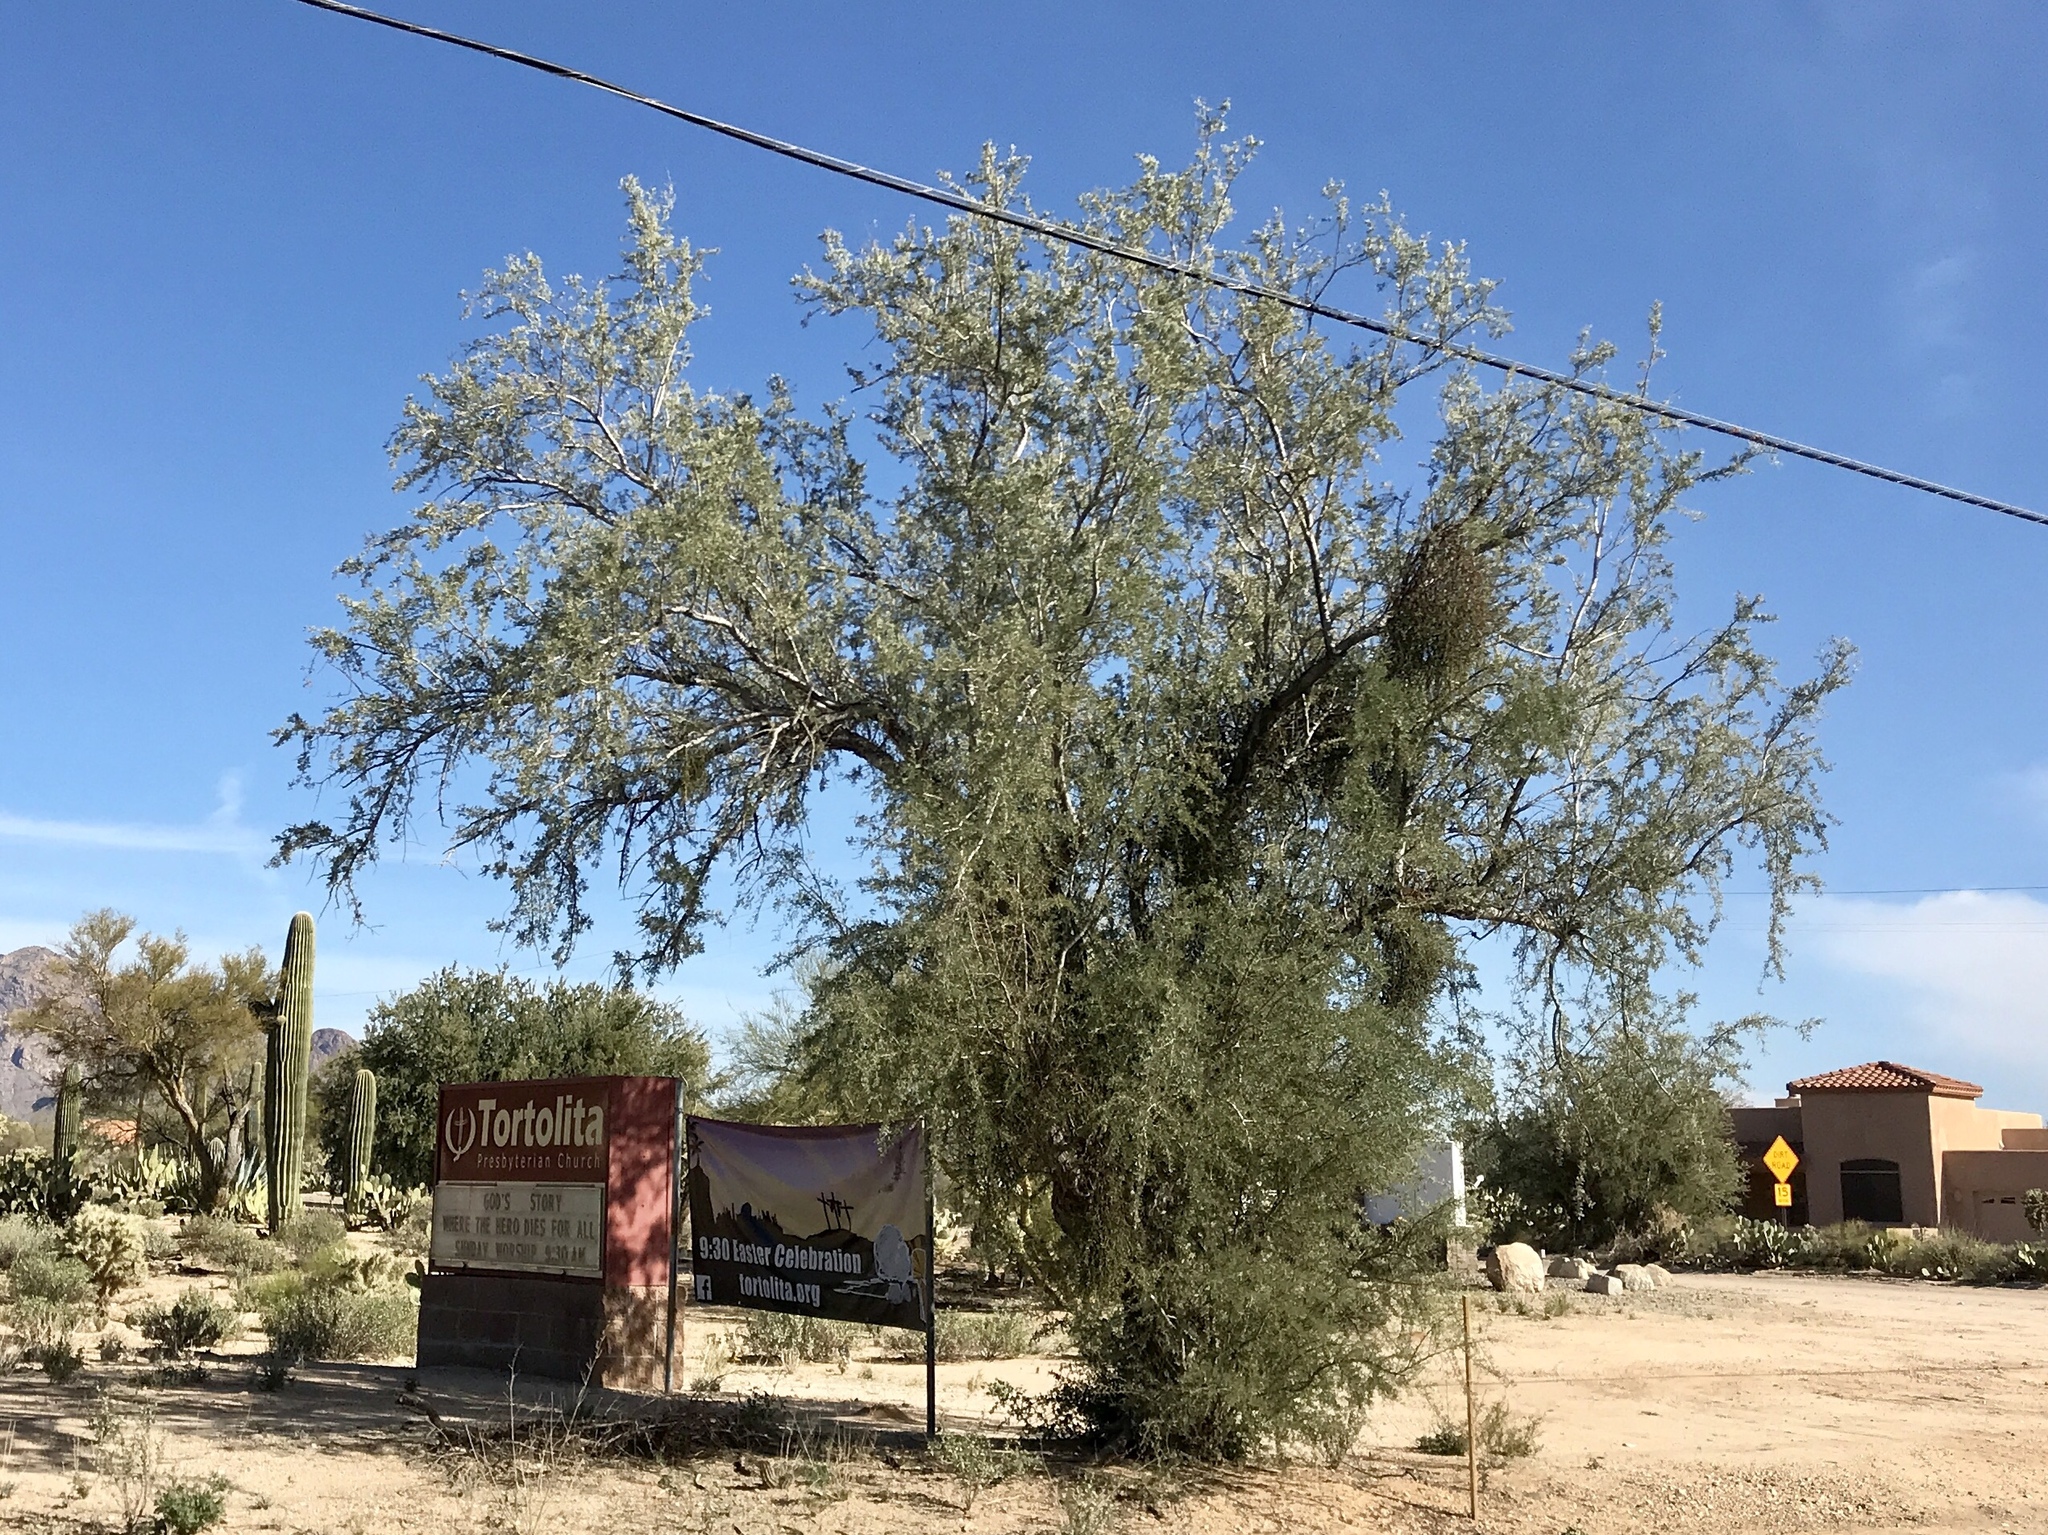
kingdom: Plantae
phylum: Tracheophyta
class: Magnoliopsida
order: Fabales
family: Fabaceae
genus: Olneya
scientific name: Olneya tesota
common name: Desert ironwood
